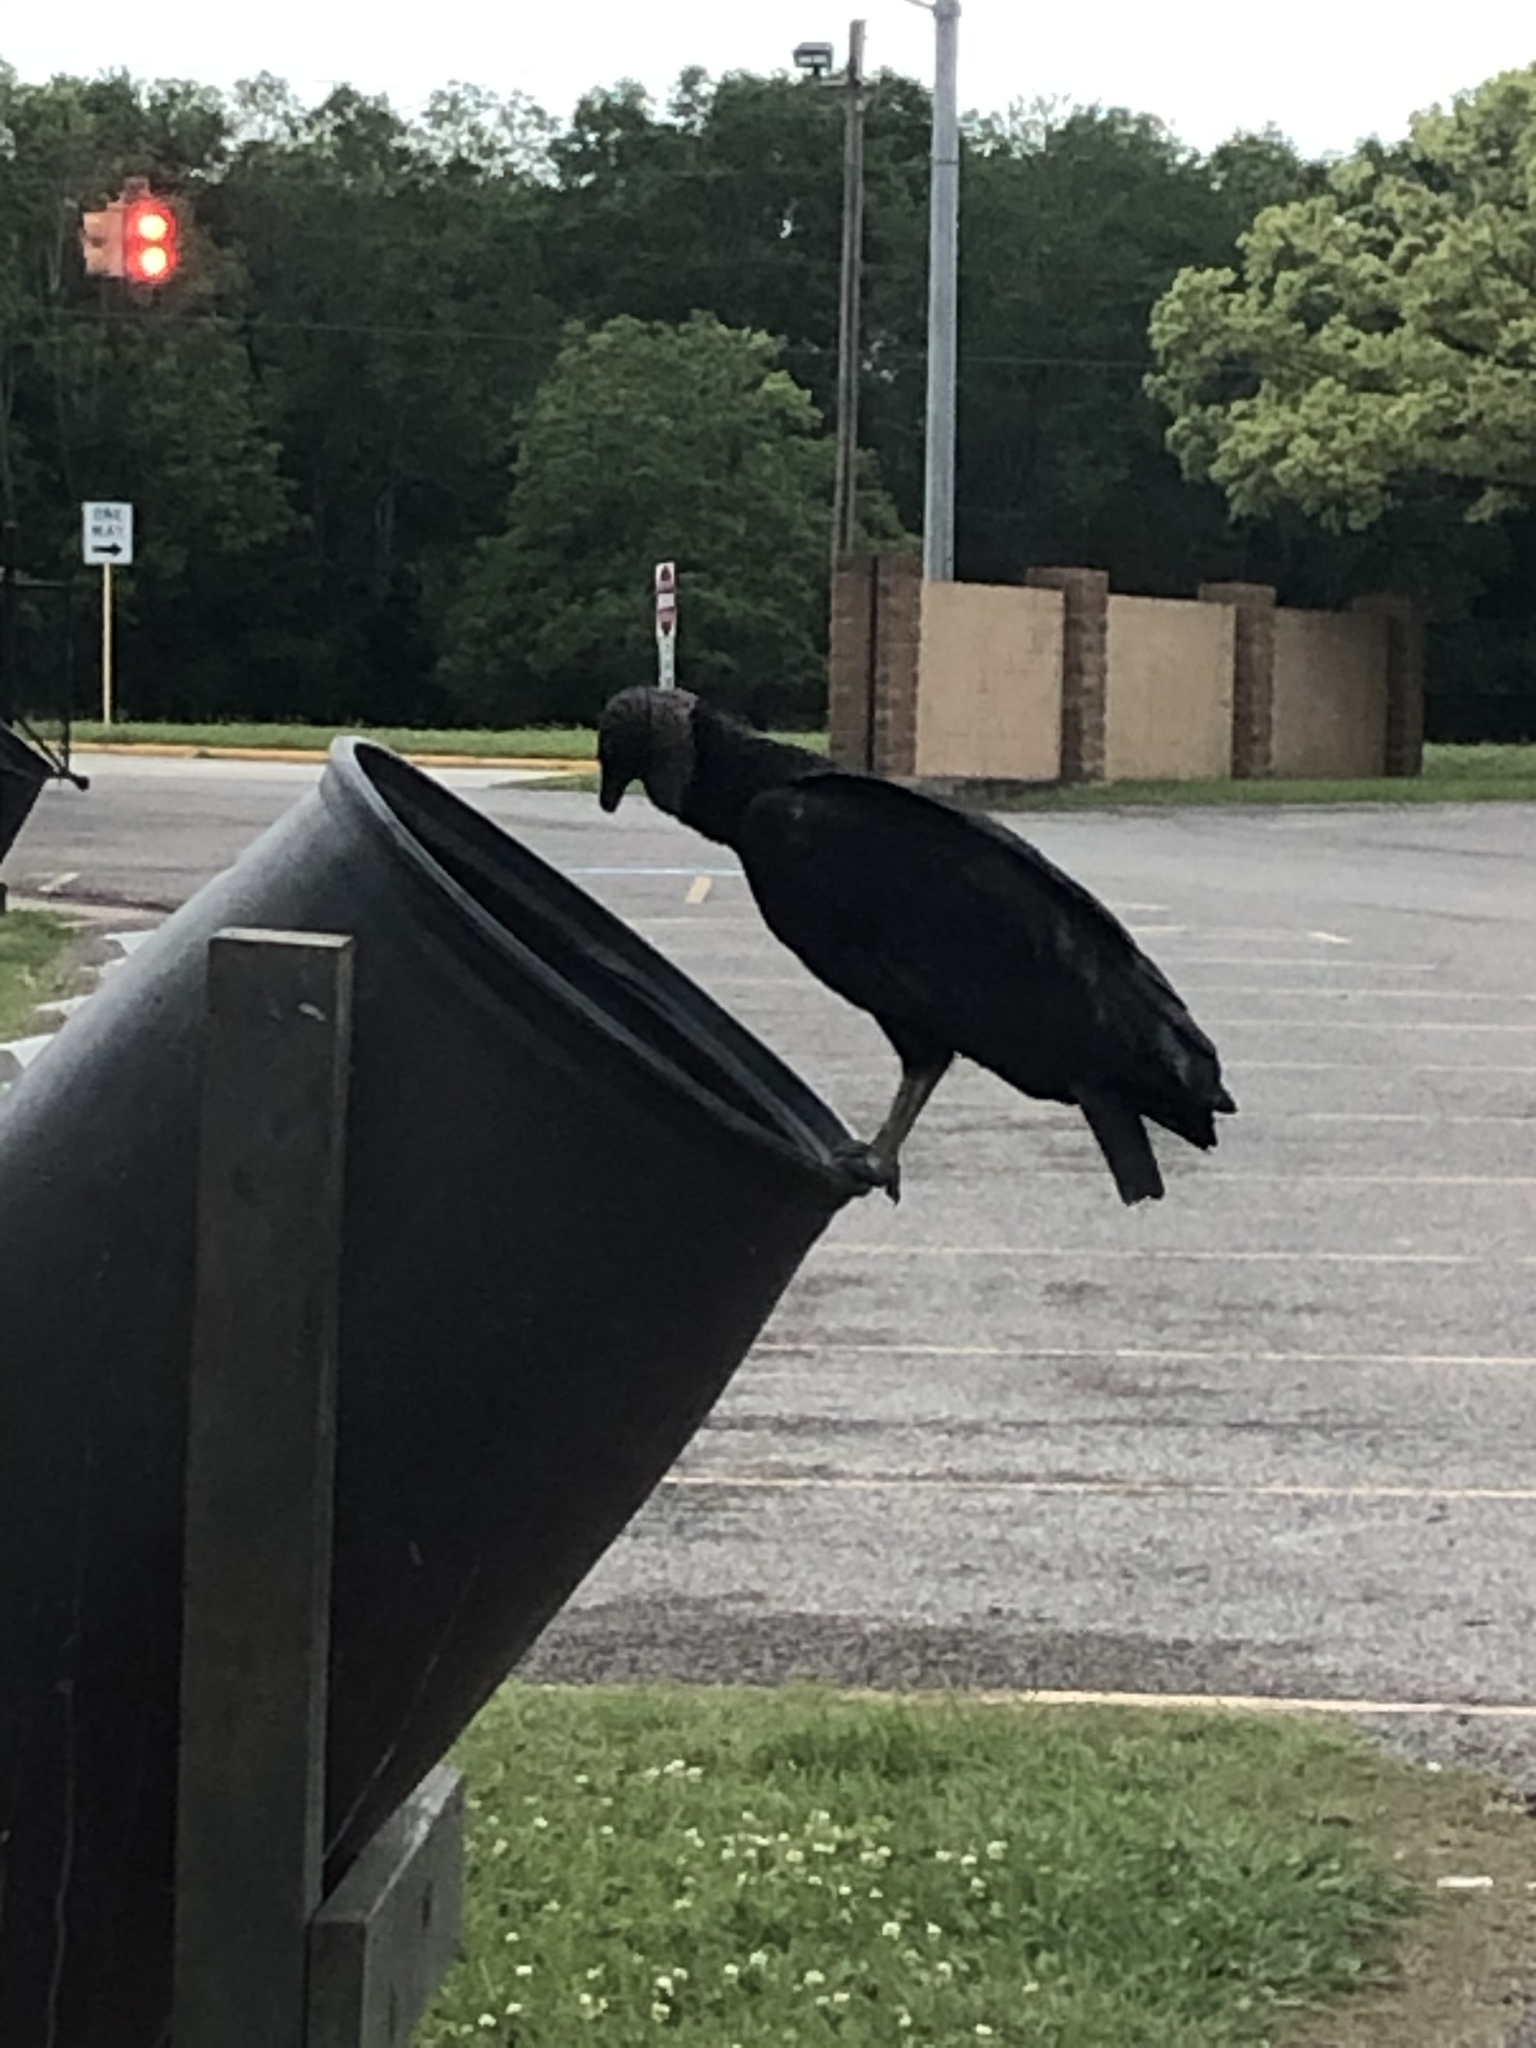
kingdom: Animalia
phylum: Chordata
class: Aves
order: Accipitriformes
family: Cathartidae
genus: Coragyps
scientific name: Coragyps atratus
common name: Black vulture
